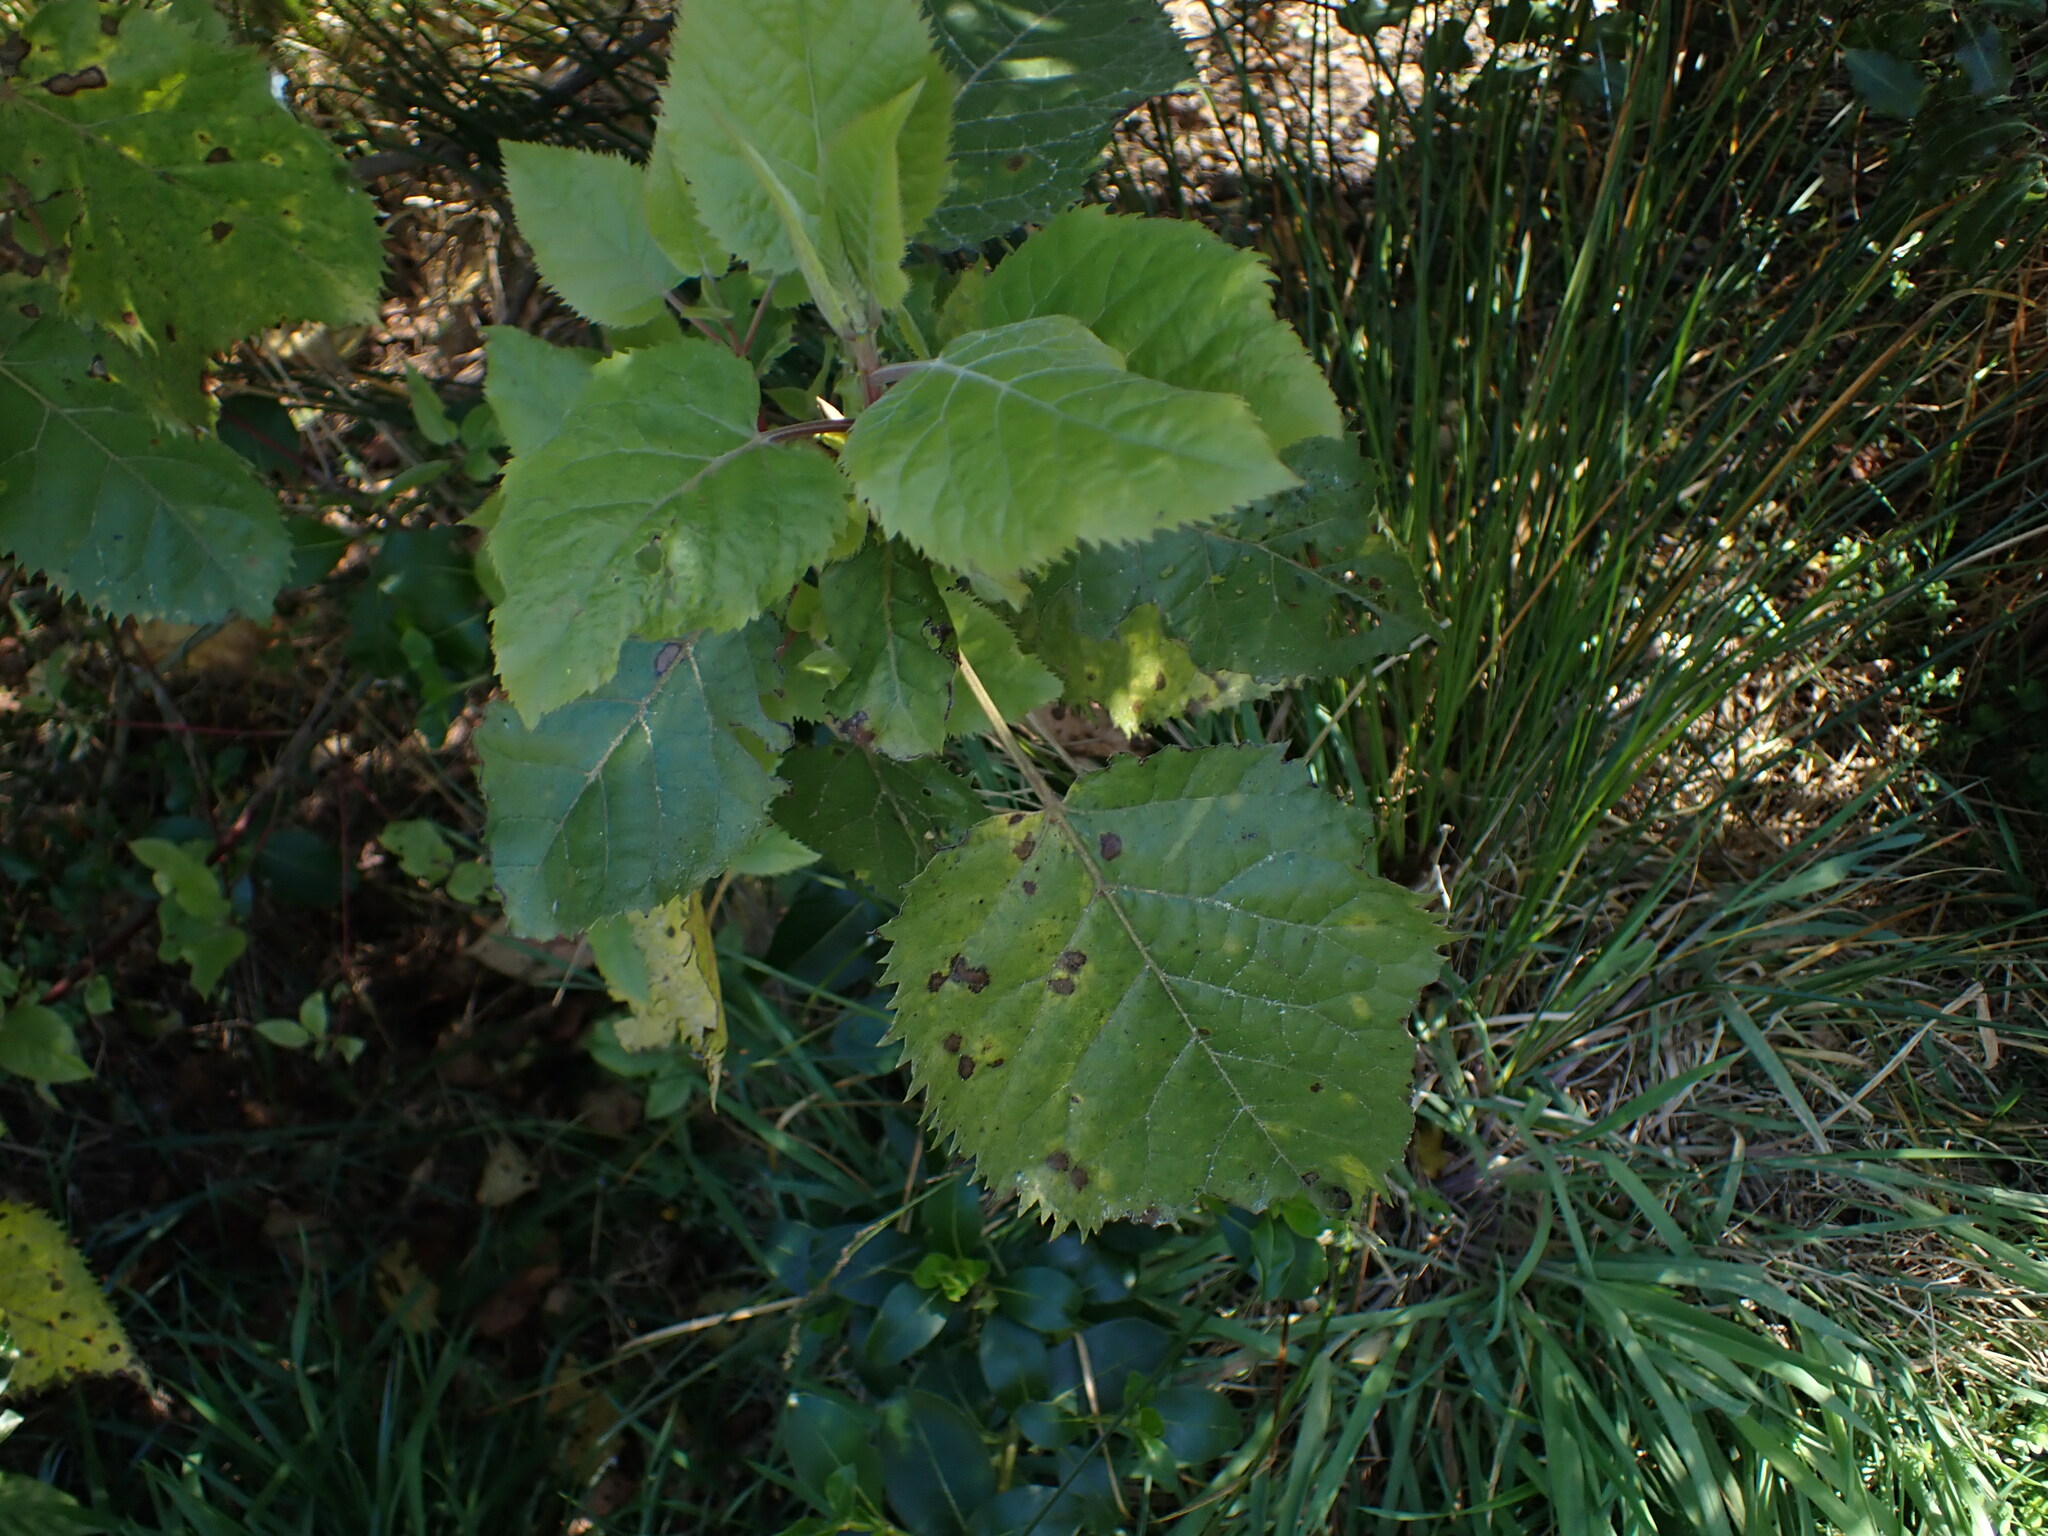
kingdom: Plantae
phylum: Tracheophyta
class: Magnoliopsida
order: Oxalidales
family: Elaeocarpaceae
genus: Aristotelia
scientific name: Aristotelia serrata
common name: New zealand wineberry
